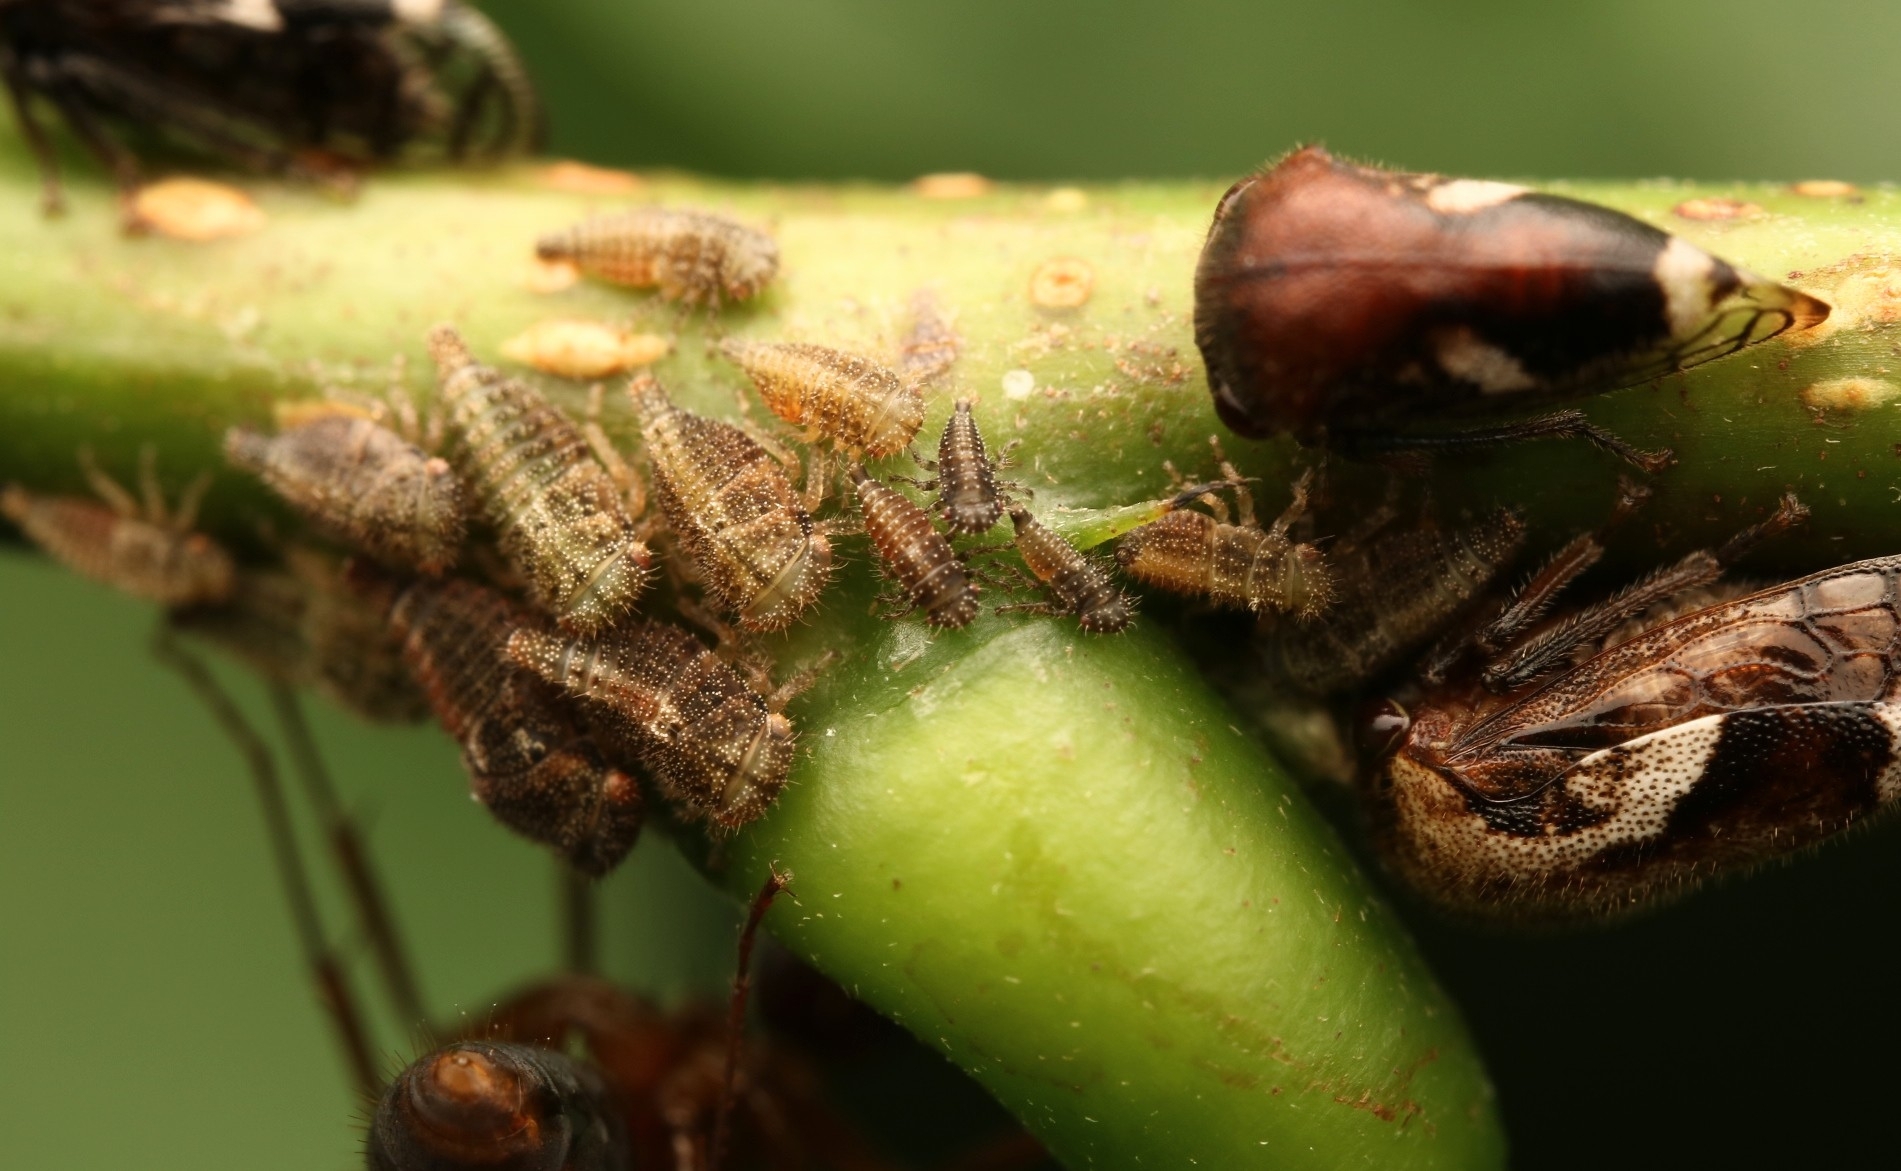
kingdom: Animalia
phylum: Arthropoda
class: Insecta
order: Hemiptera
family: Membracidae
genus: Vanduzea
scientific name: Vanduzea arquata
